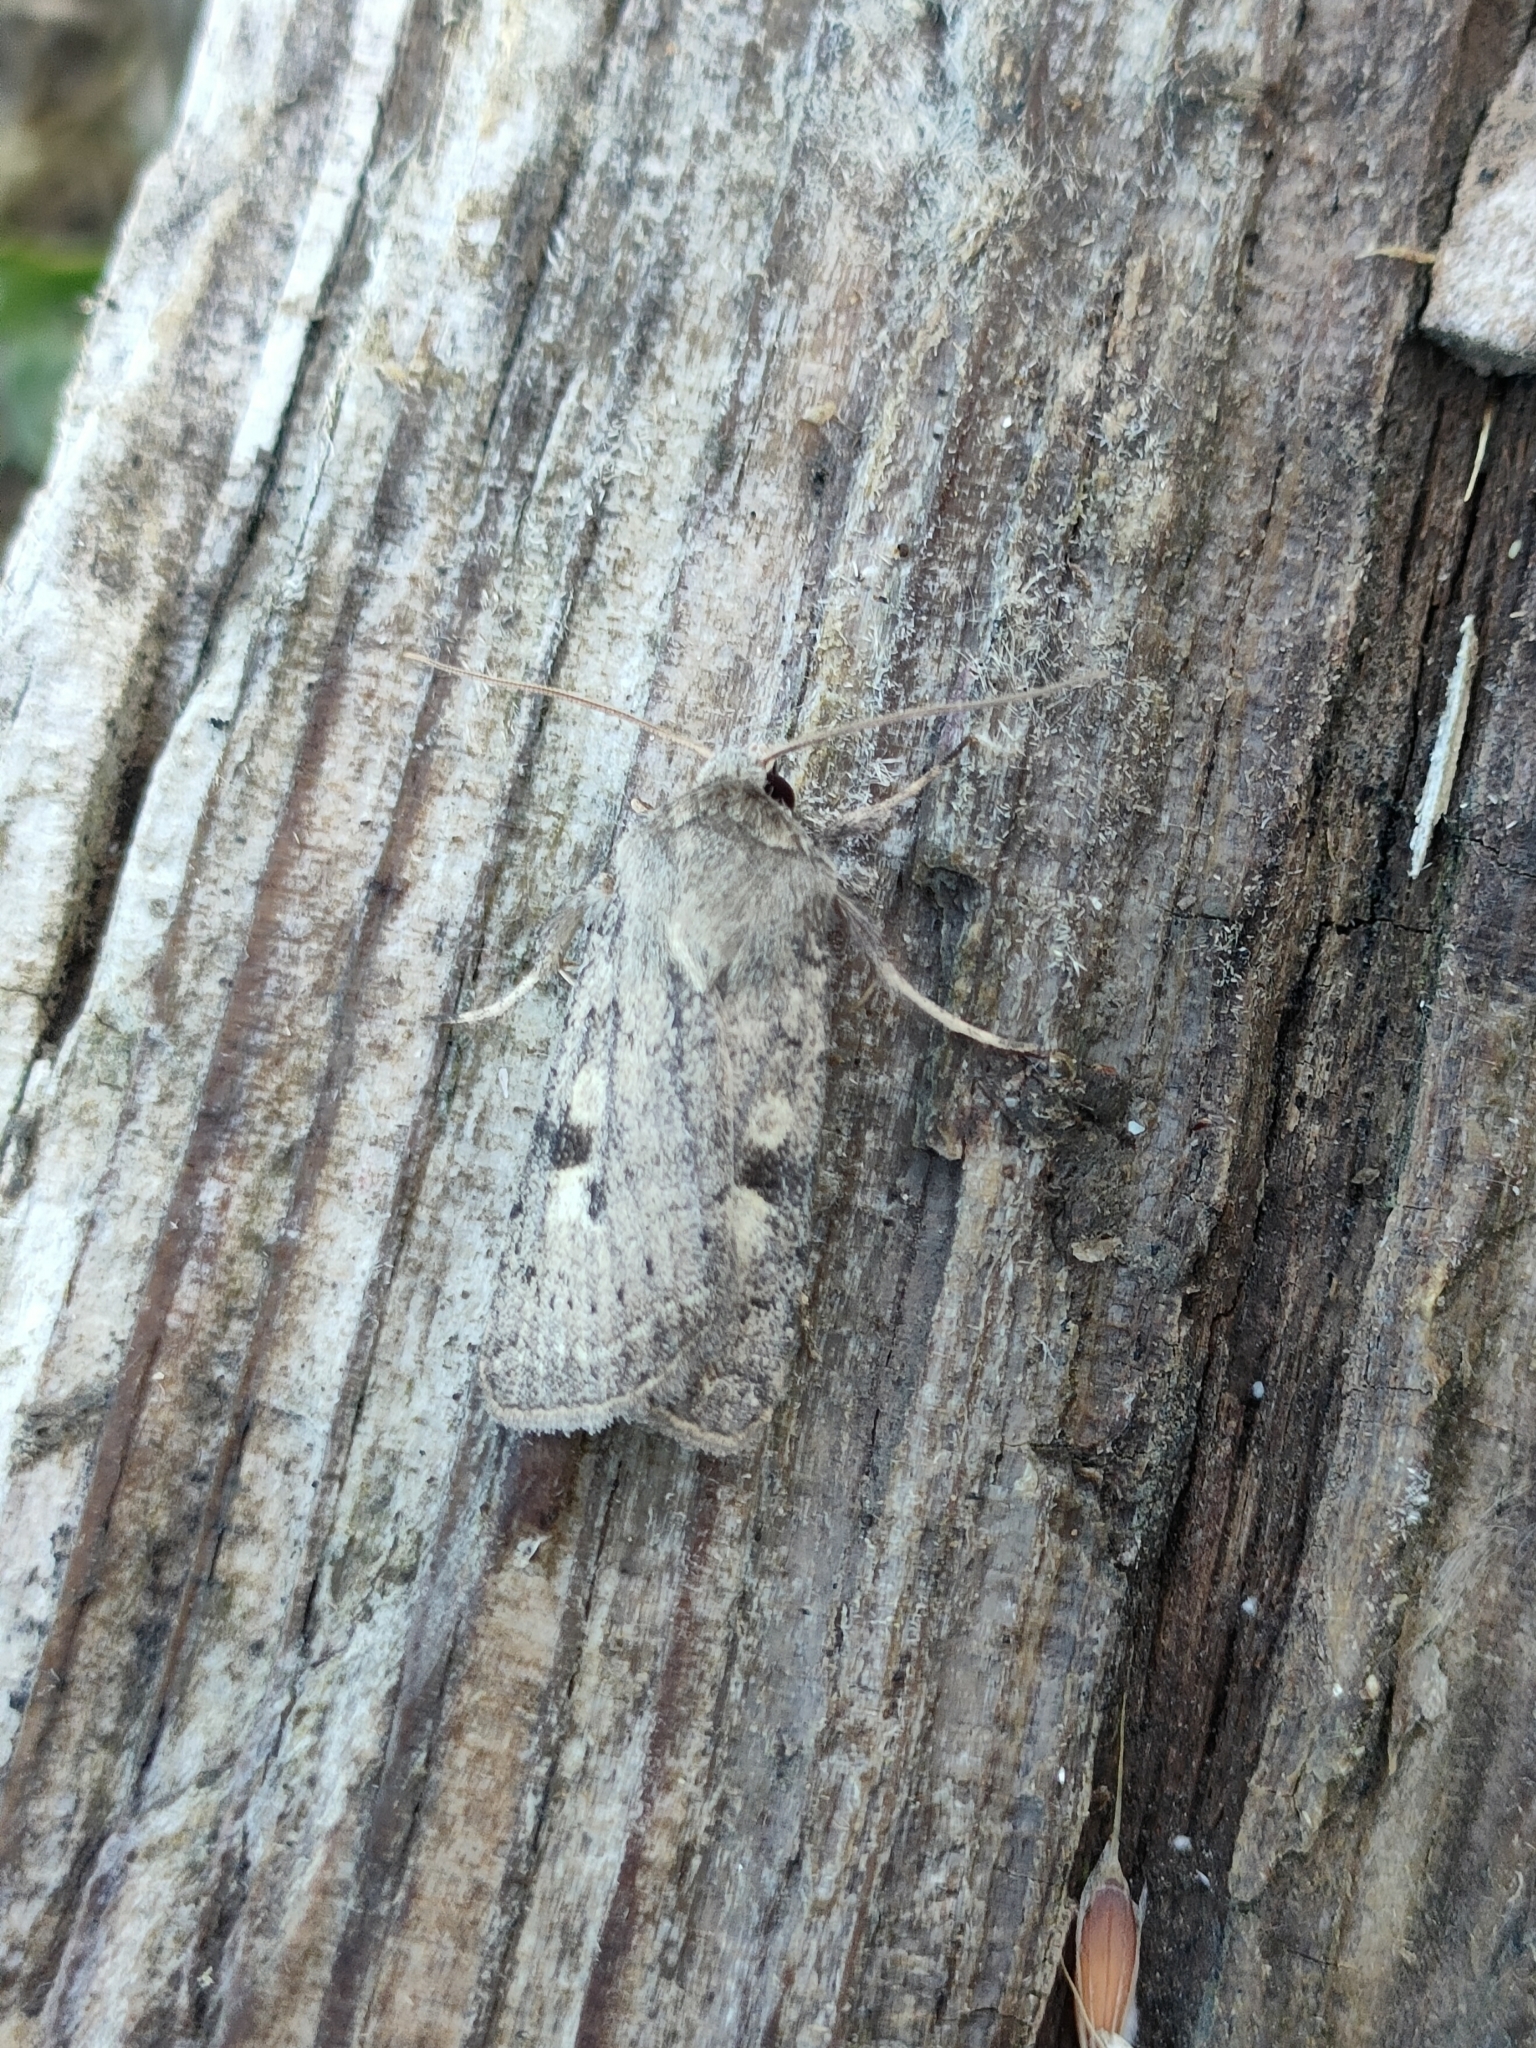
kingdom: Animalia
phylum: Arthropoda
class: Insecta
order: Lepidoptera
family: Noctuidae
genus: Xestia
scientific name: Xestia xanthographa
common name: Square-spot rustic
